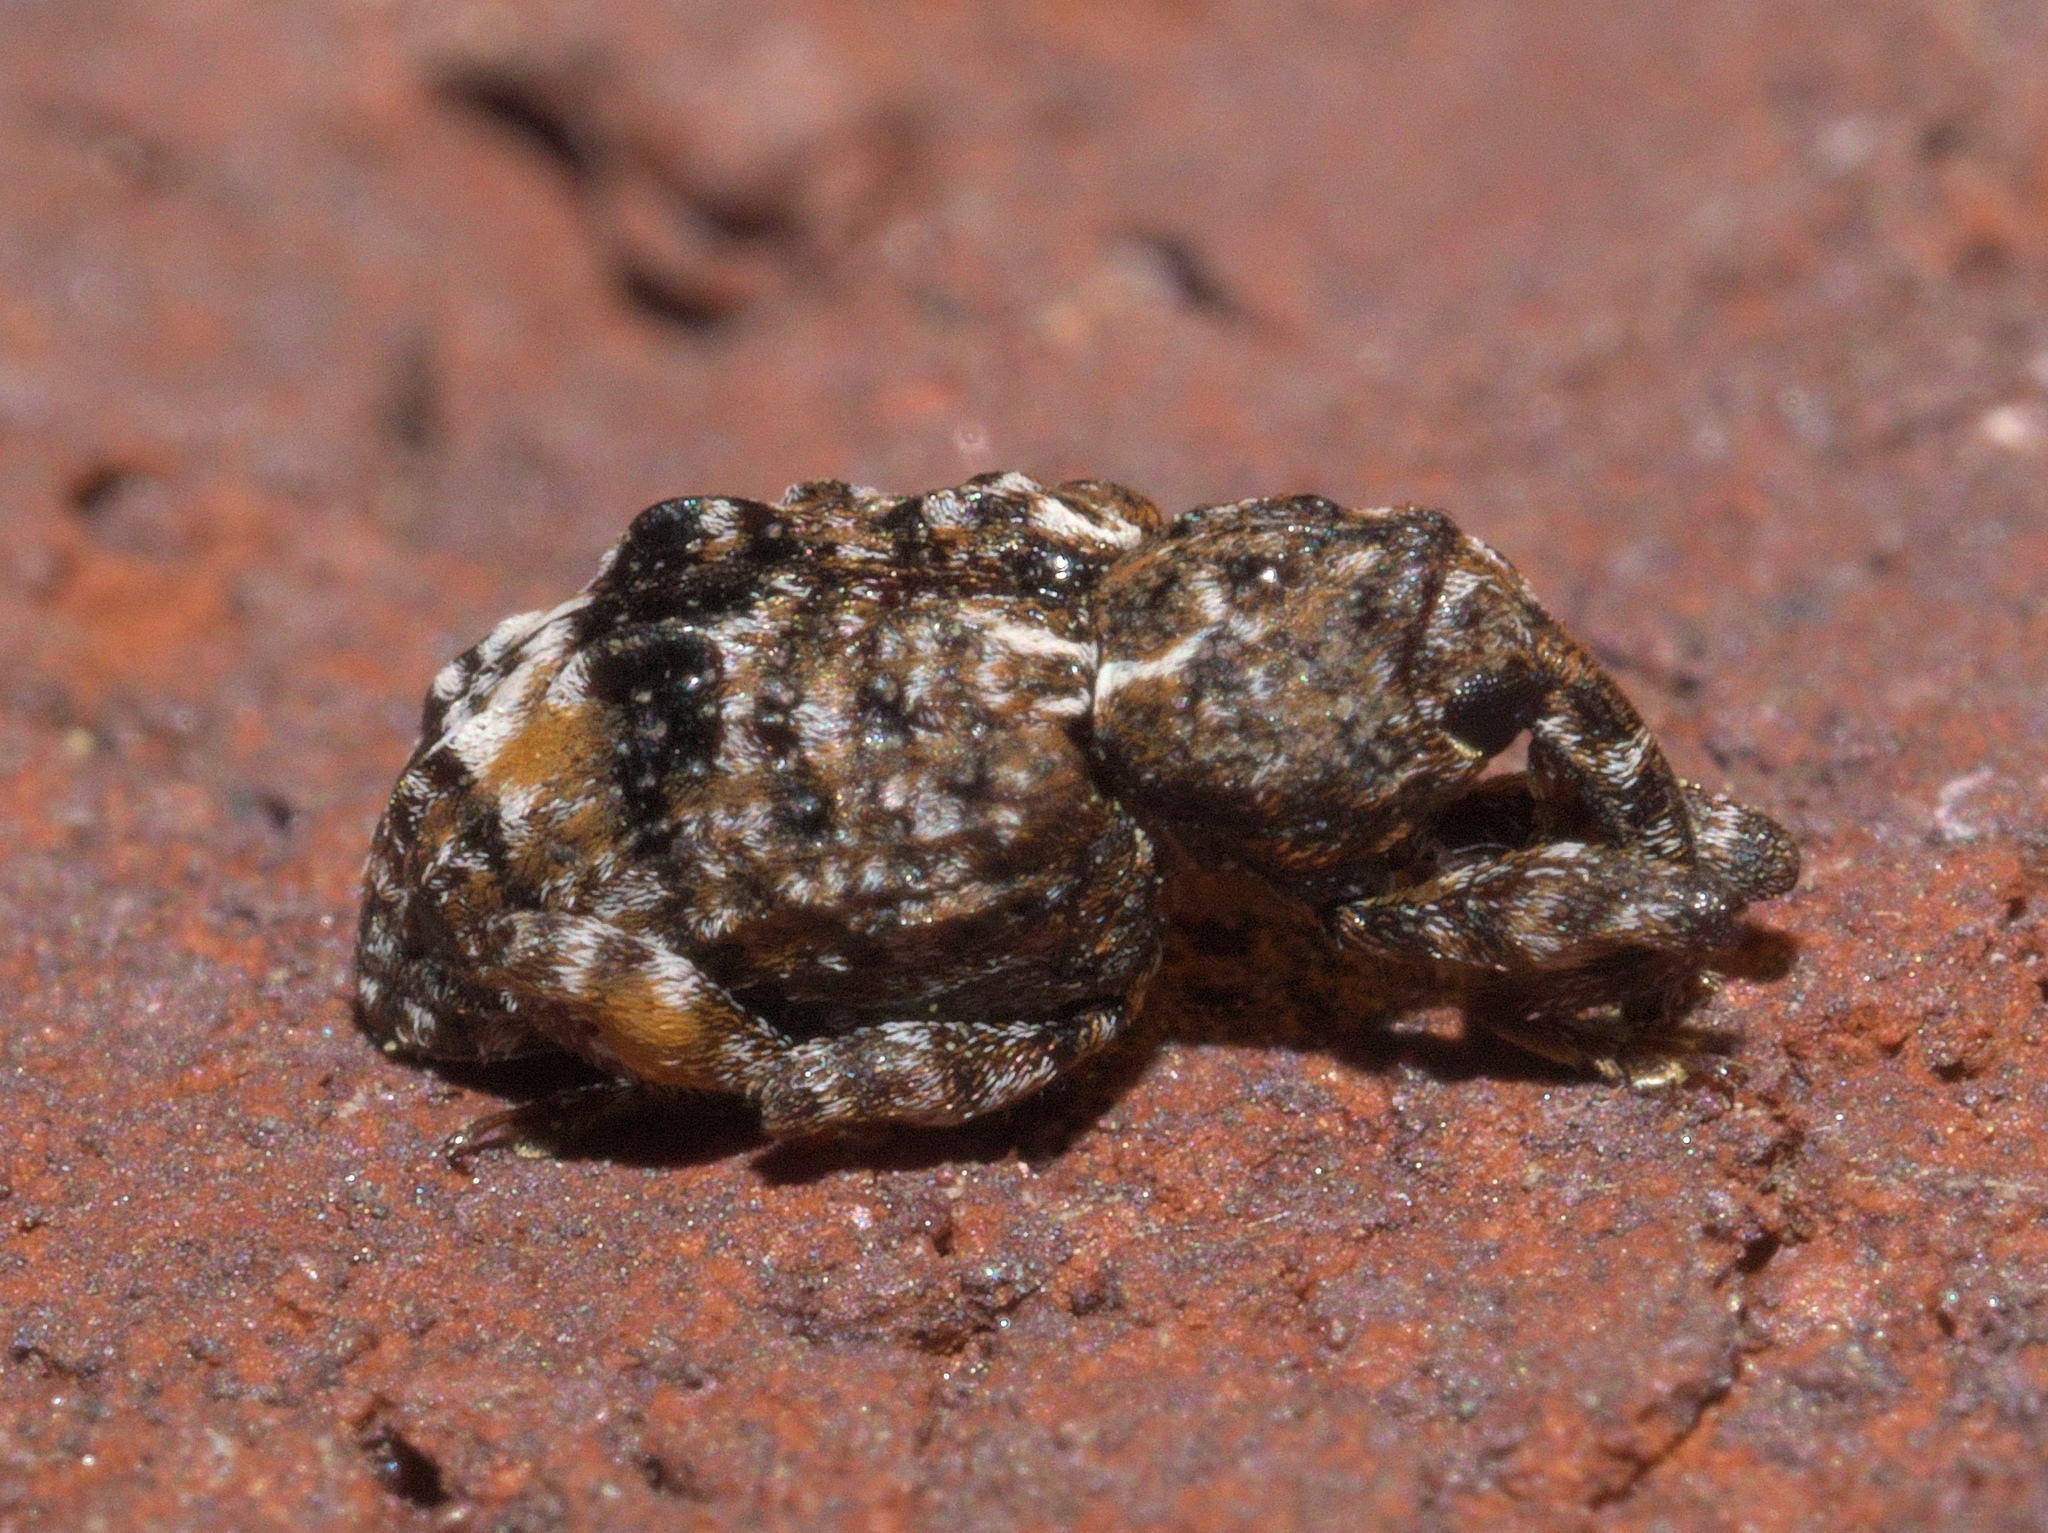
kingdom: Animalia
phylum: Arthropoda
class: Insecta
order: Coleoptera
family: Curculionidae
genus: Conotrachelus
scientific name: Conotrachelus nenuphar
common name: Plum curculio
